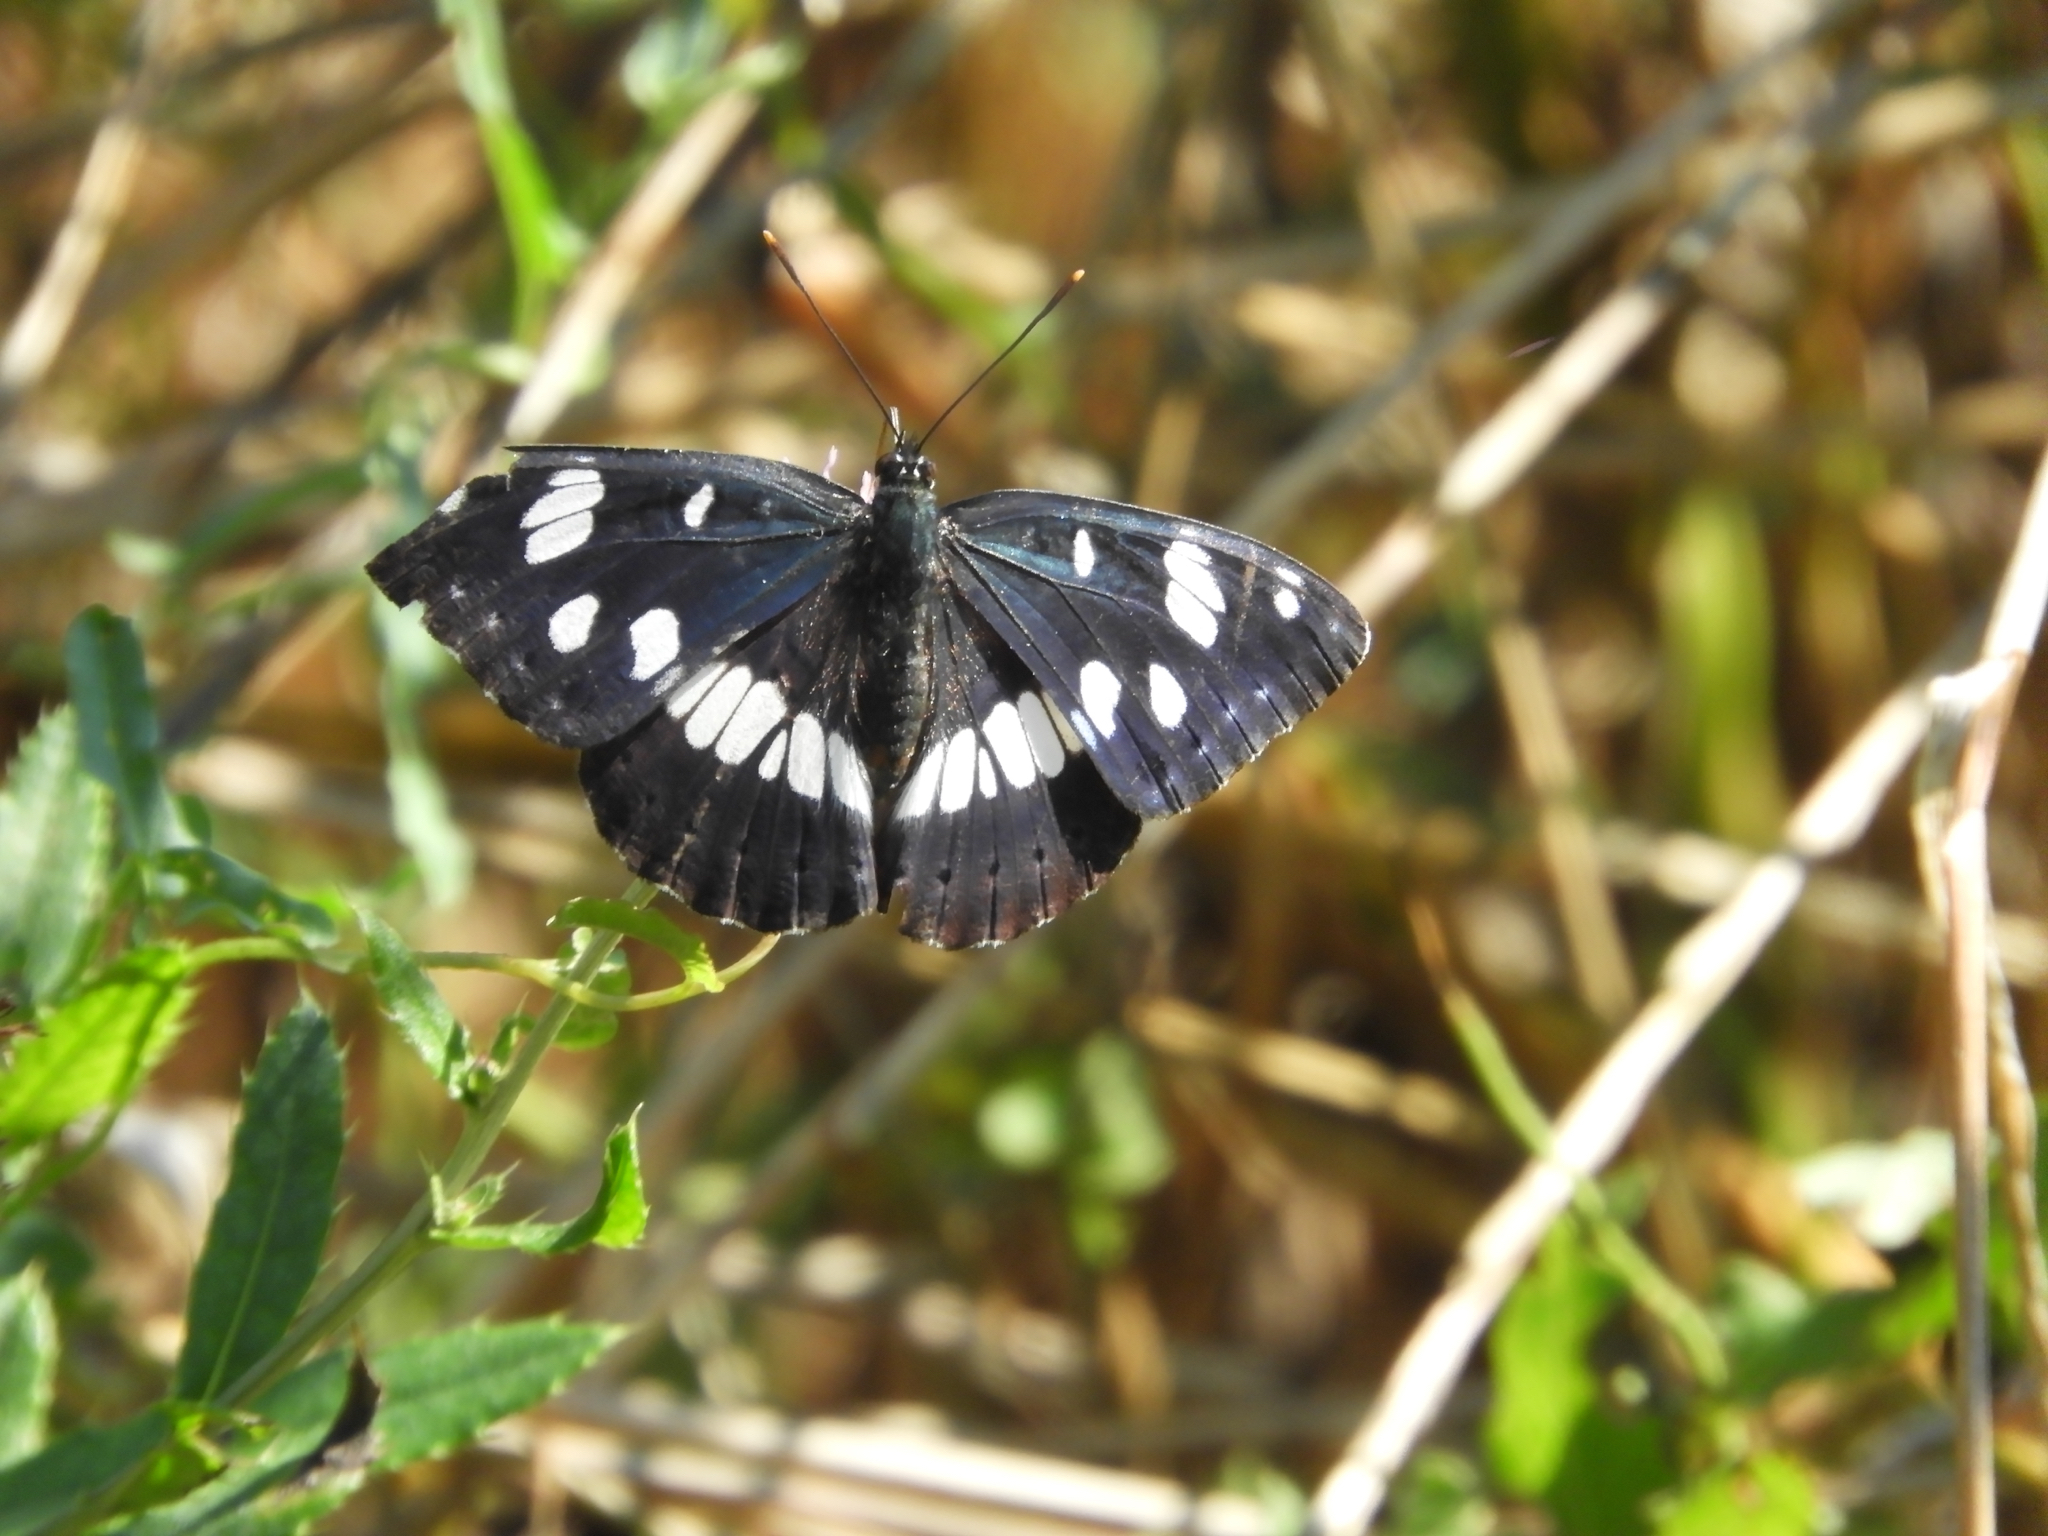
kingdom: Animalia
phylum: Arthropoda
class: Insecta
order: Lepidoptera
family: Nymphalidae
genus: Limenitis
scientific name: Limenitis reducta
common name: Southern white admiral
